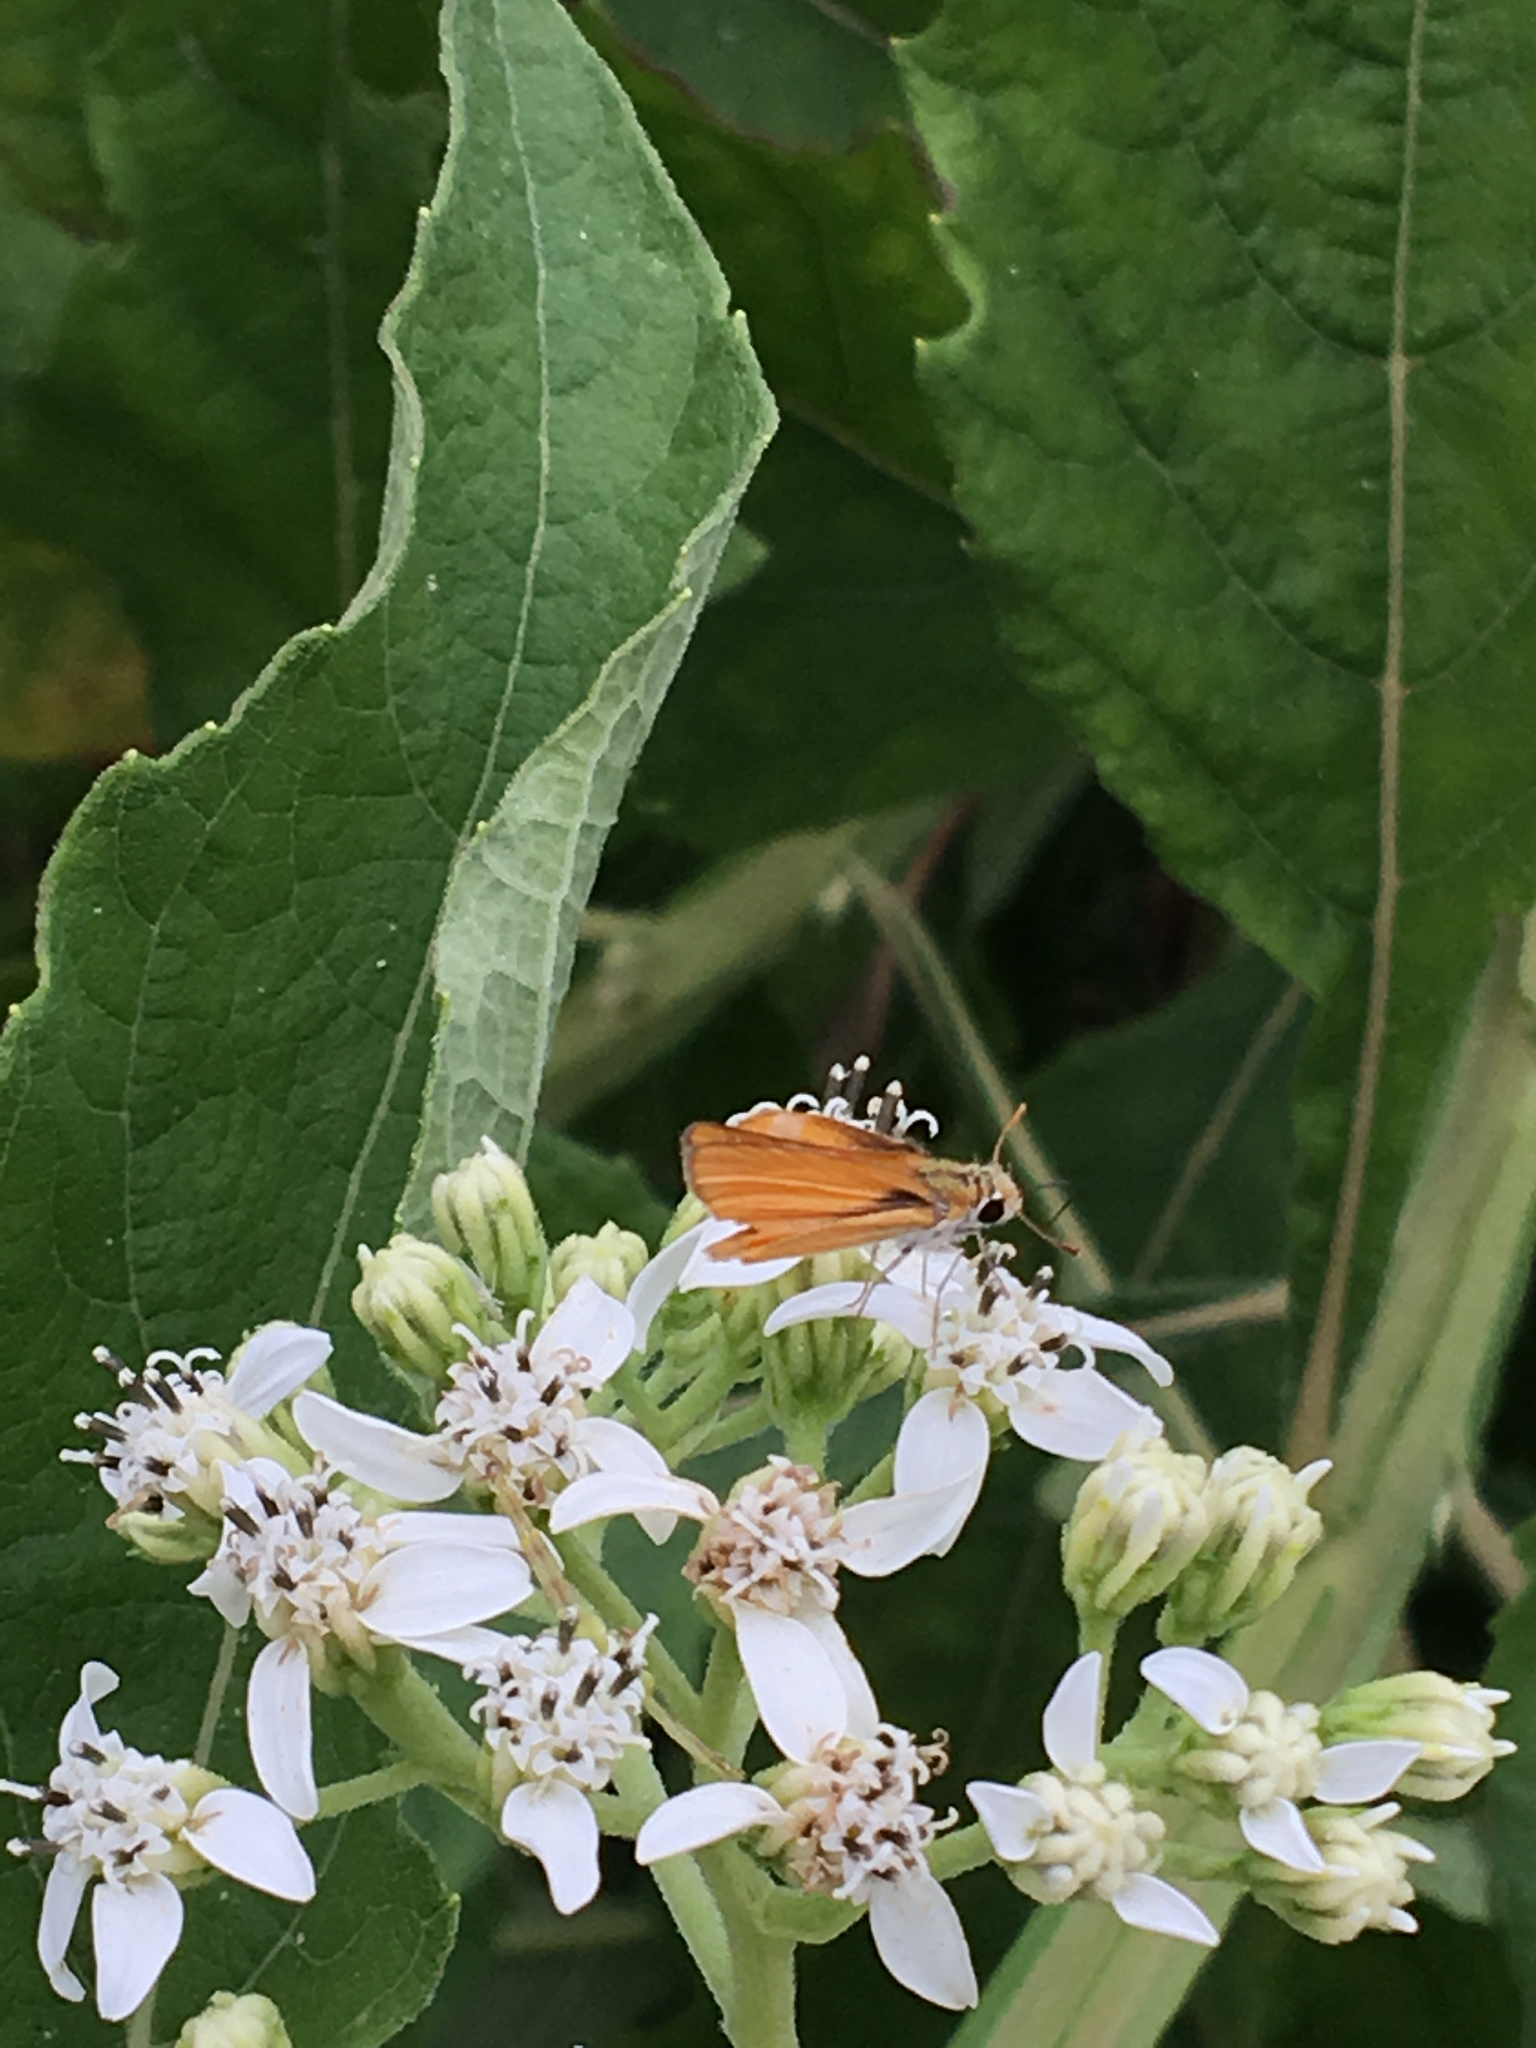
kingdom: Animalia
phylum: Arthropoda
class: Insecta
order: Lepidoptera
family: Hesperiidae
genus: Copaeodes
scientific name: Copaeodes minima
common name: Southern skipperling
